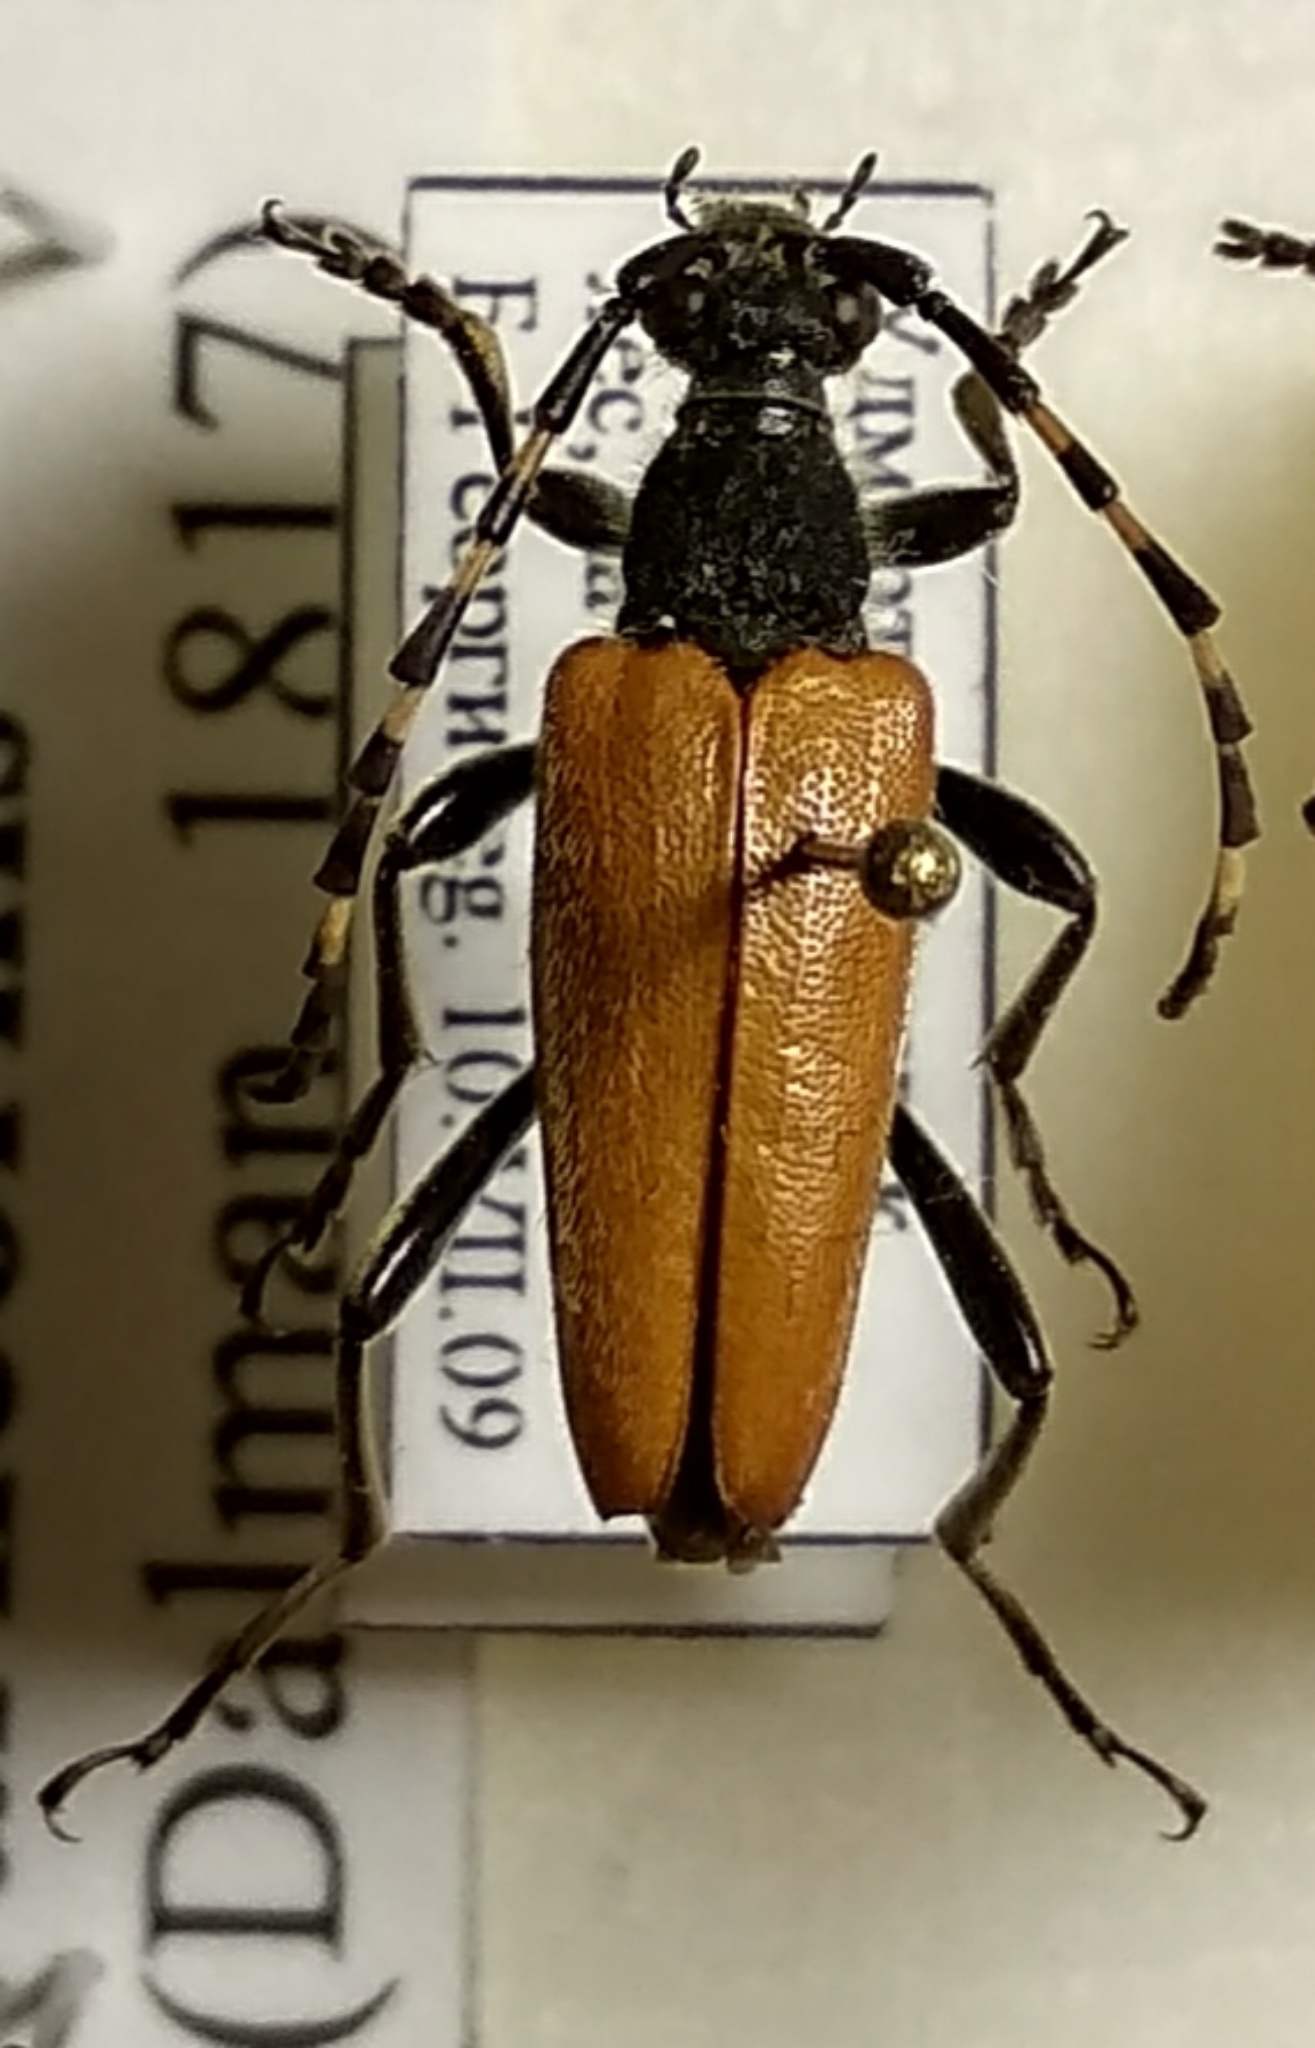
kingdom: Animalia
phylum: Arthropoda
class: Insecta
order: Coleoptera
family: Cerambycidae
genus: Stictoleptura
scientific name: Stictoleptura variicornis
